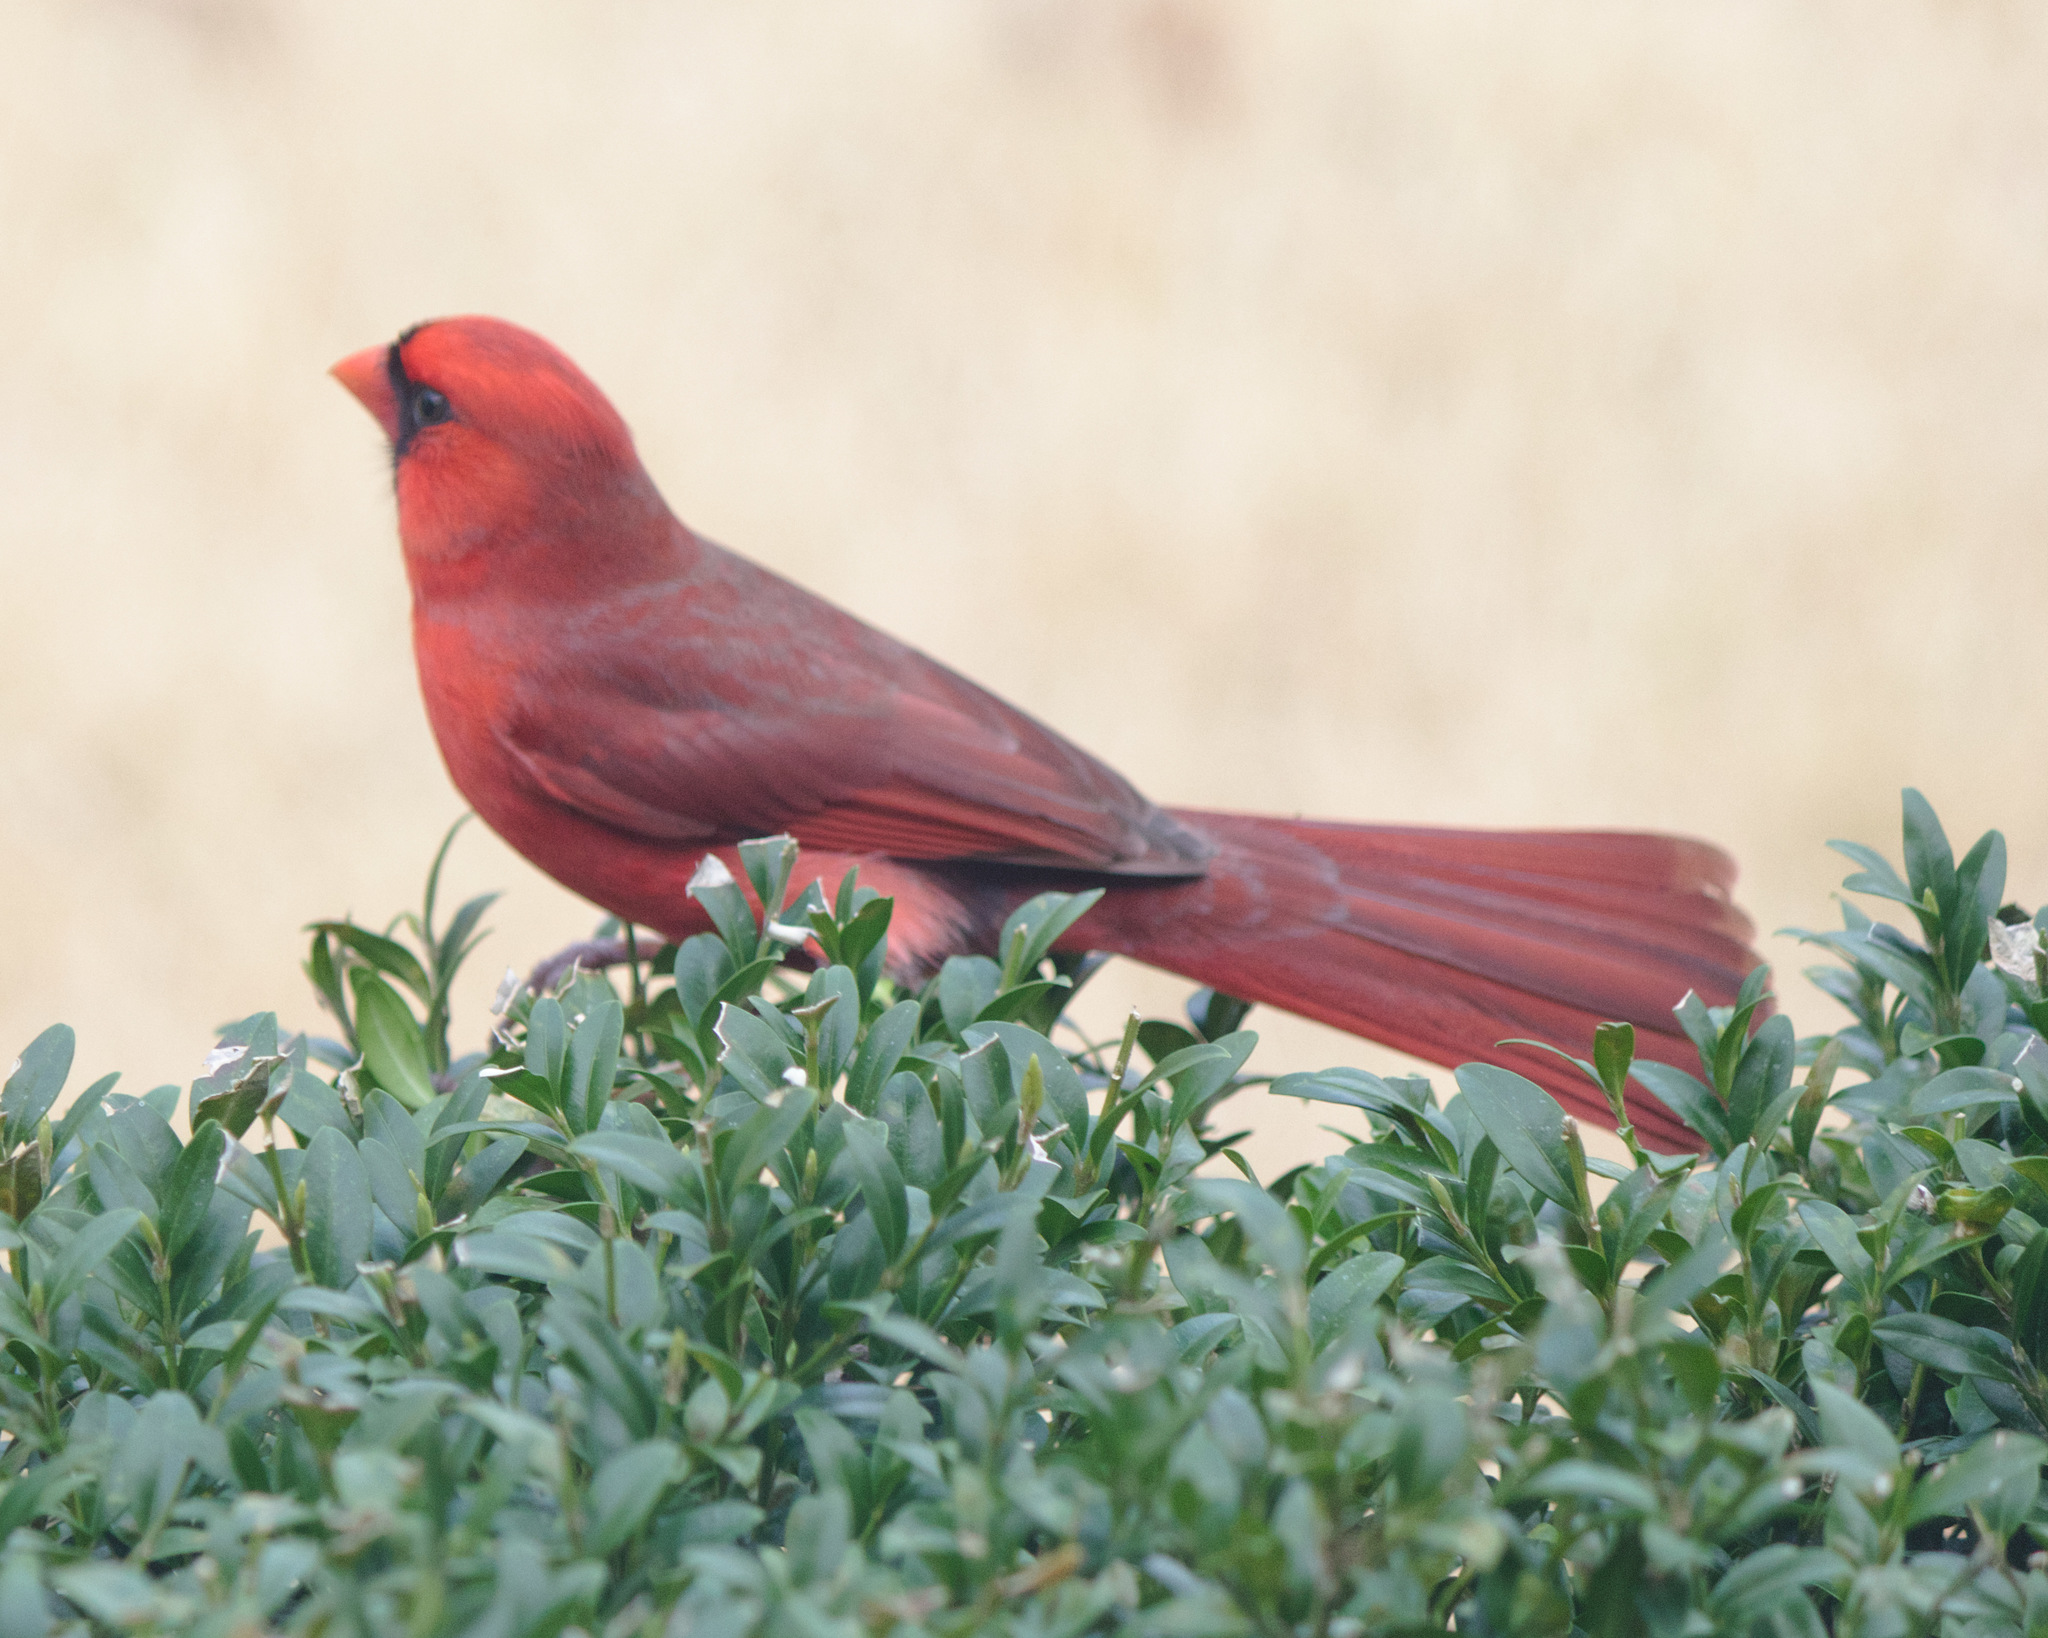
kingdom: Animalia
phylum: Chordata
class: Aves
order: Passeriformes
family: Cardinalidae
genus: Cardinalis
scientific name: Cardinalis cardinalis
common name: Northern cardinal
